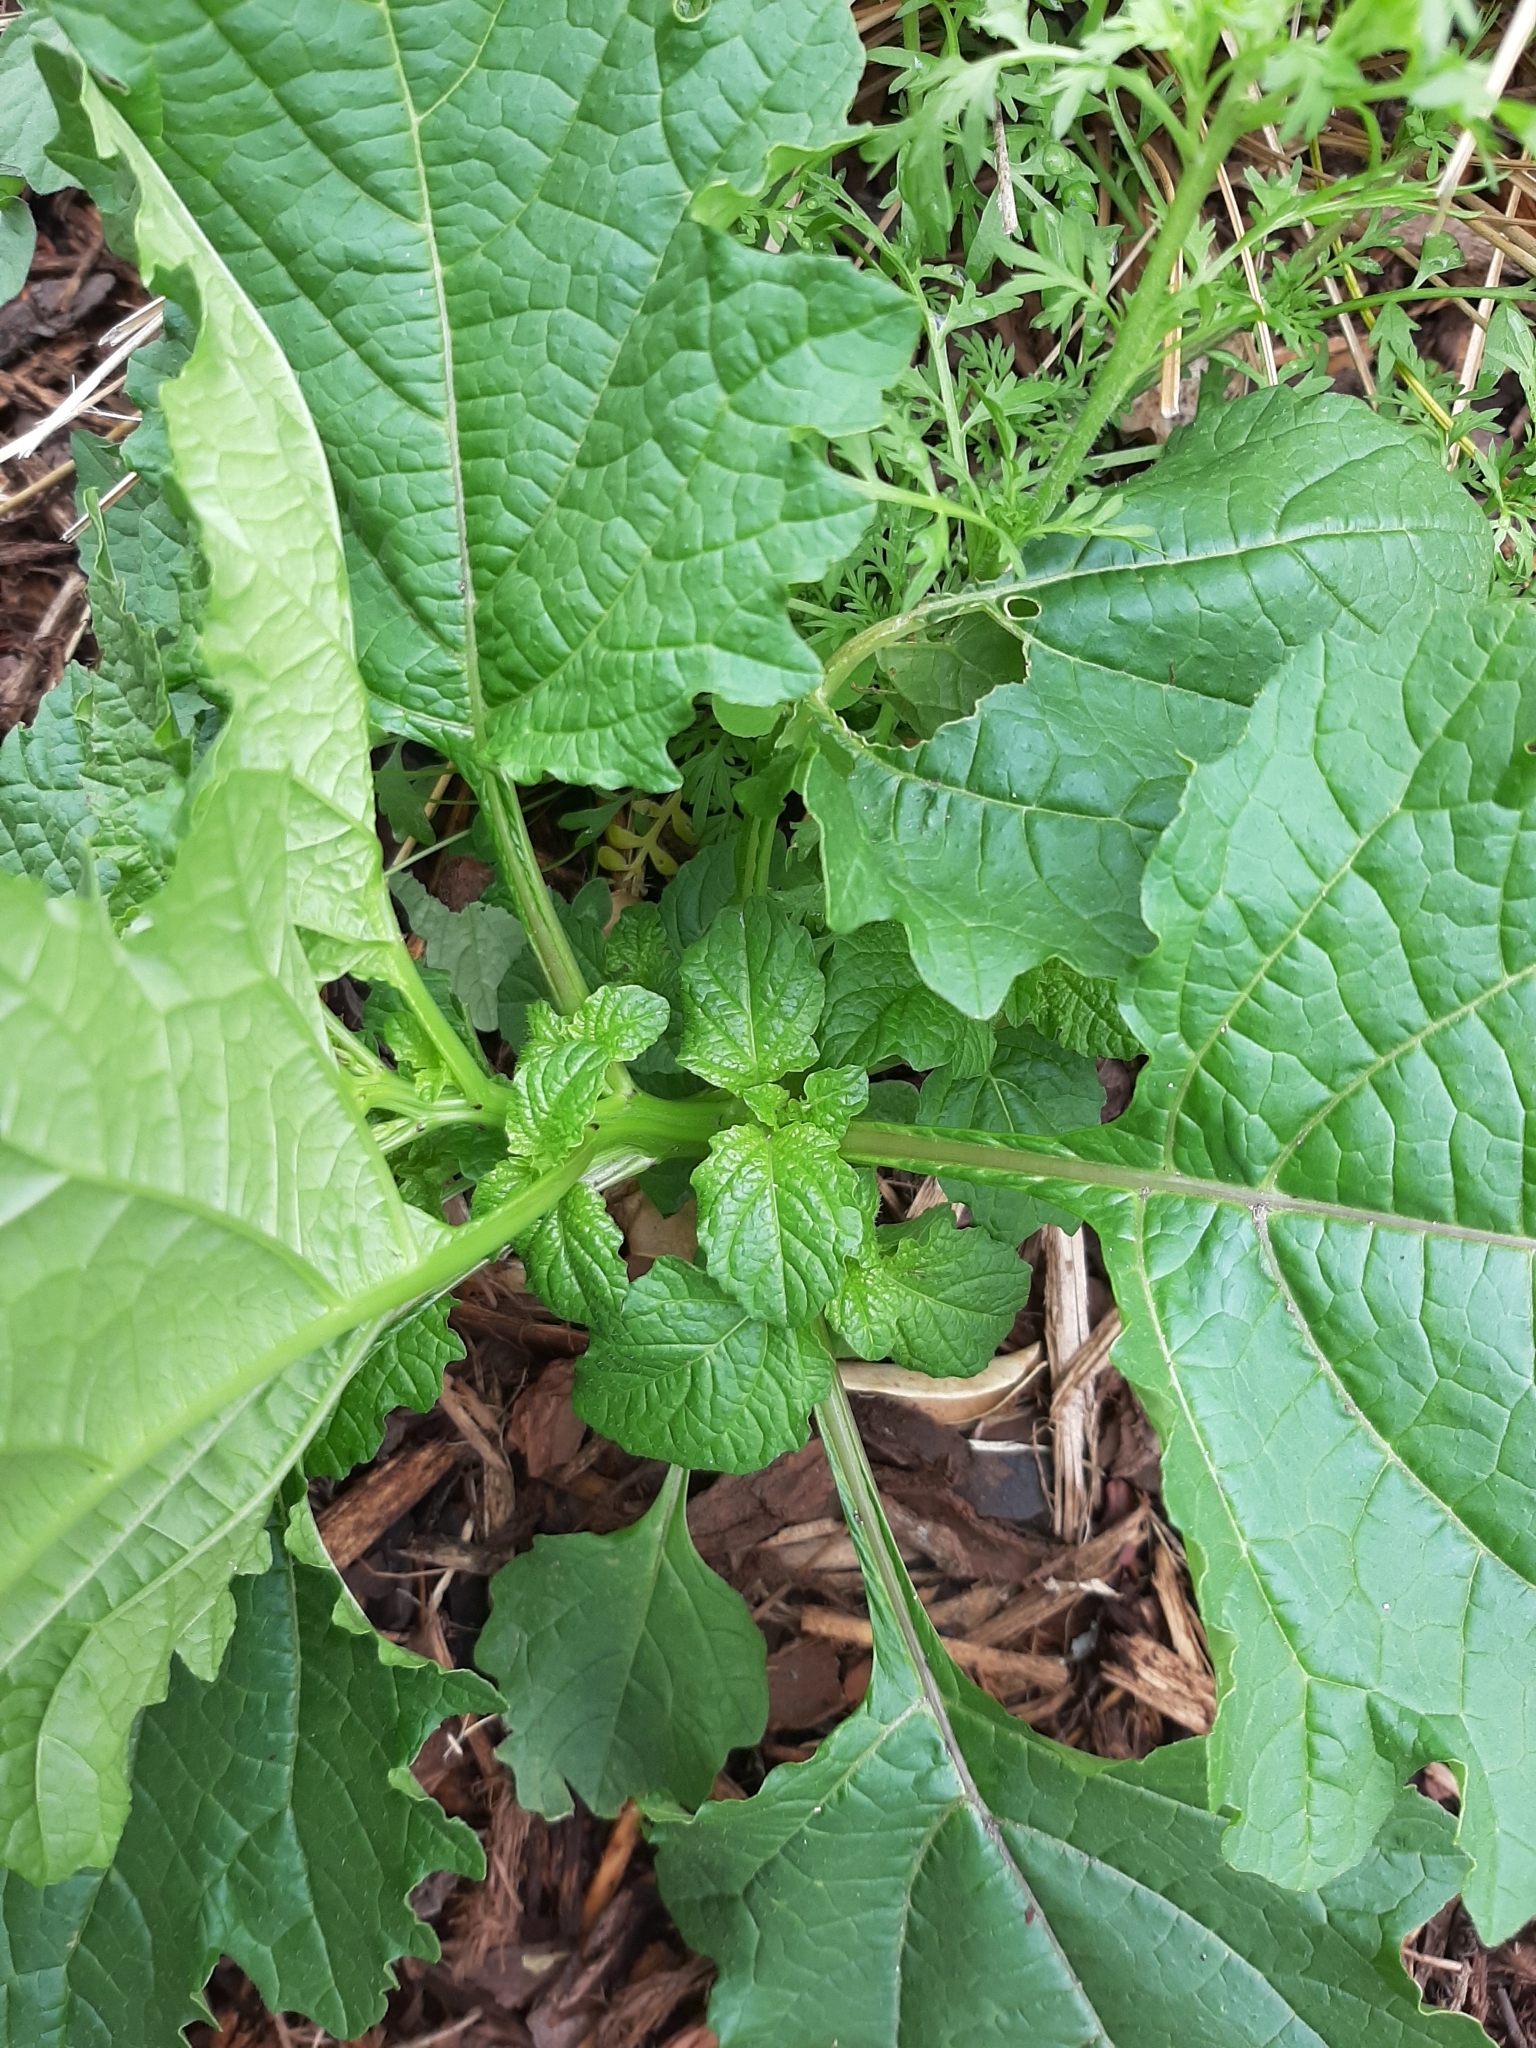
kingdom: Plantae
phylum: Tracheophyta
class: Magnoliopsida
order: Solanales
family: Solanaceae
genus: Nicandra
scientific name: Nicandra physalodes
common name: Apple-of-peru
